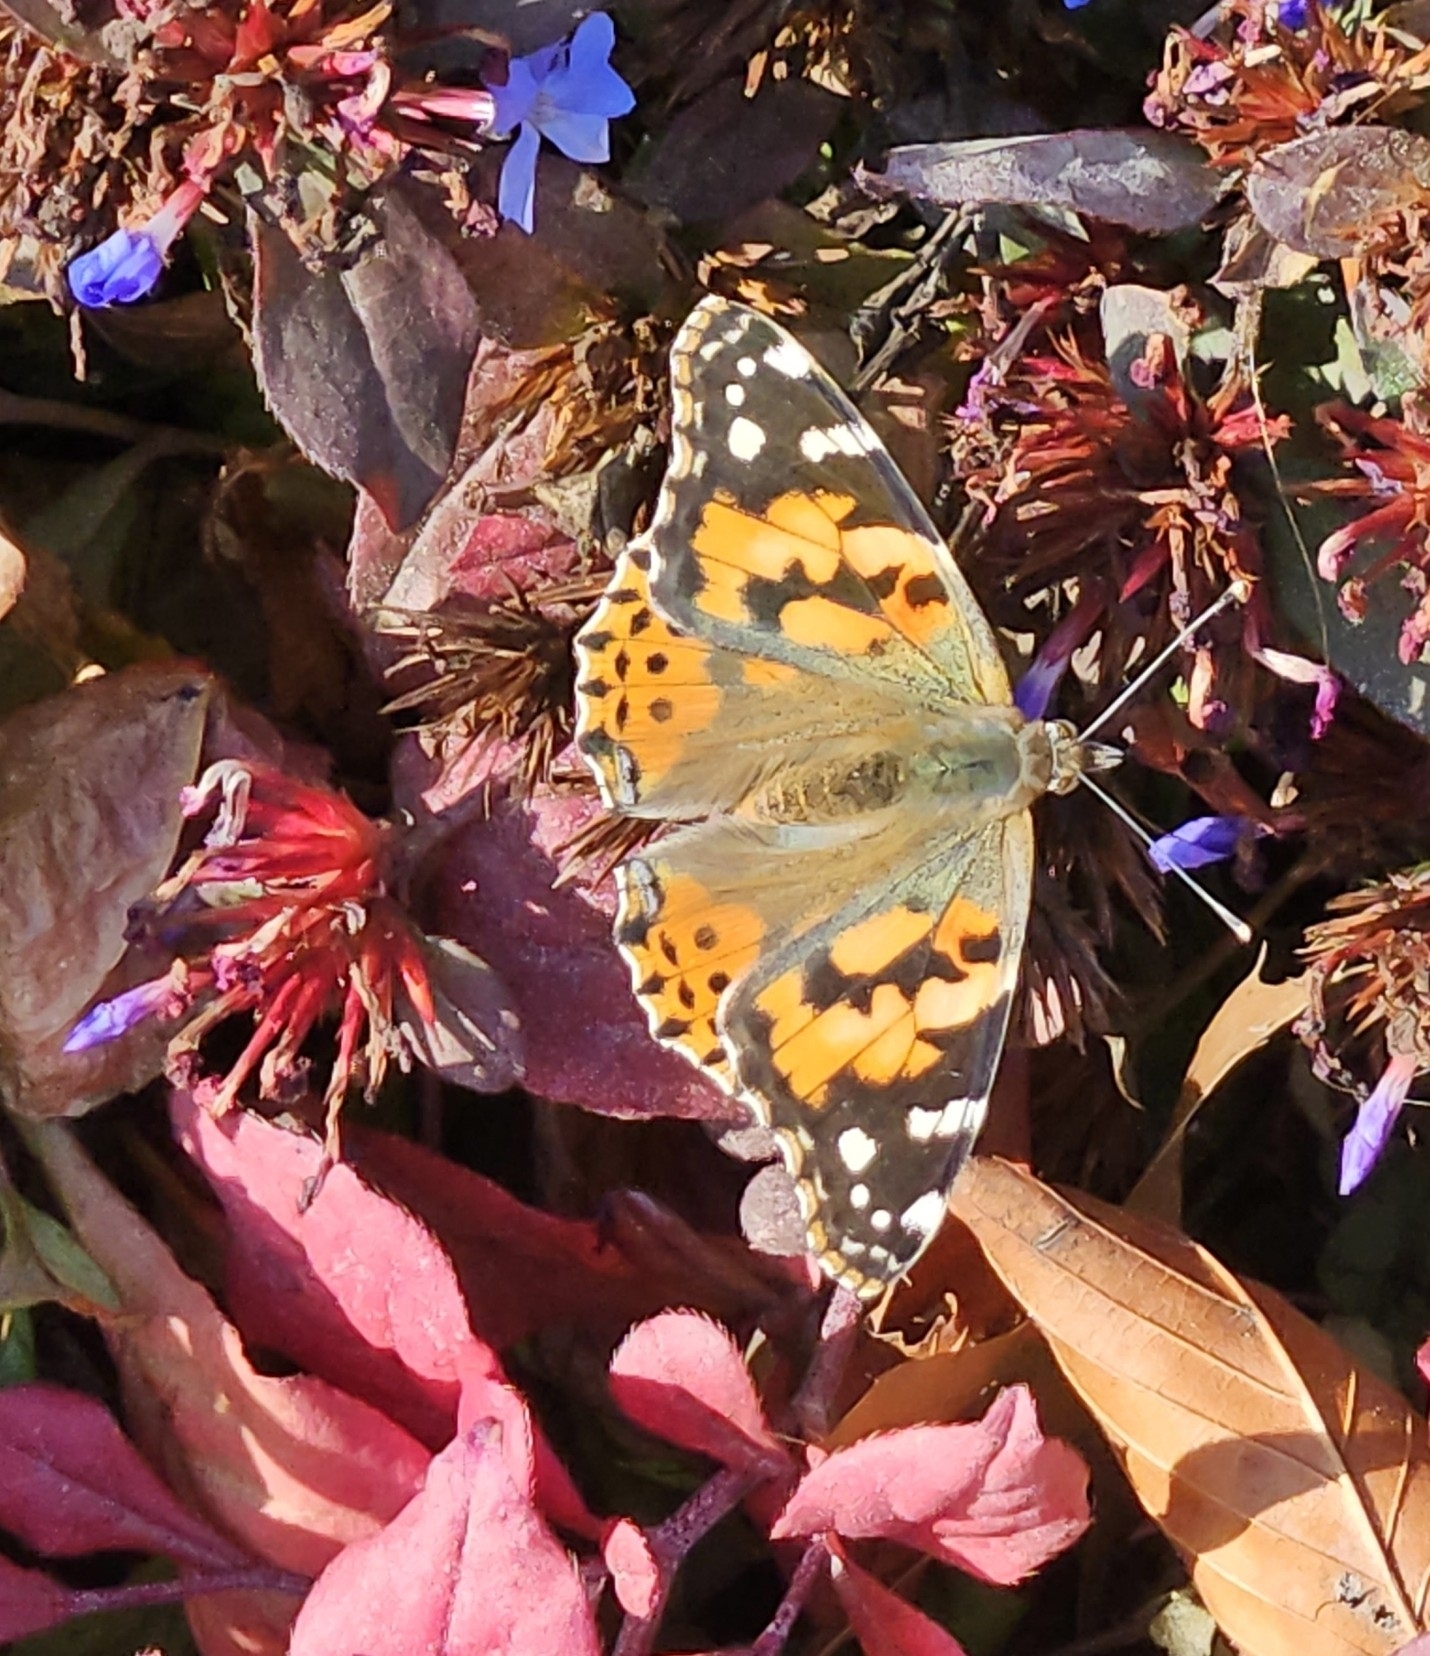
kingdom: Animalia
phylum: Arthropoda
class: Insecta
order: Lepidoptera
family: Nymphalidae
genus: Vanessa
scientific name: Vanessa cardui
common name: Painted lady
